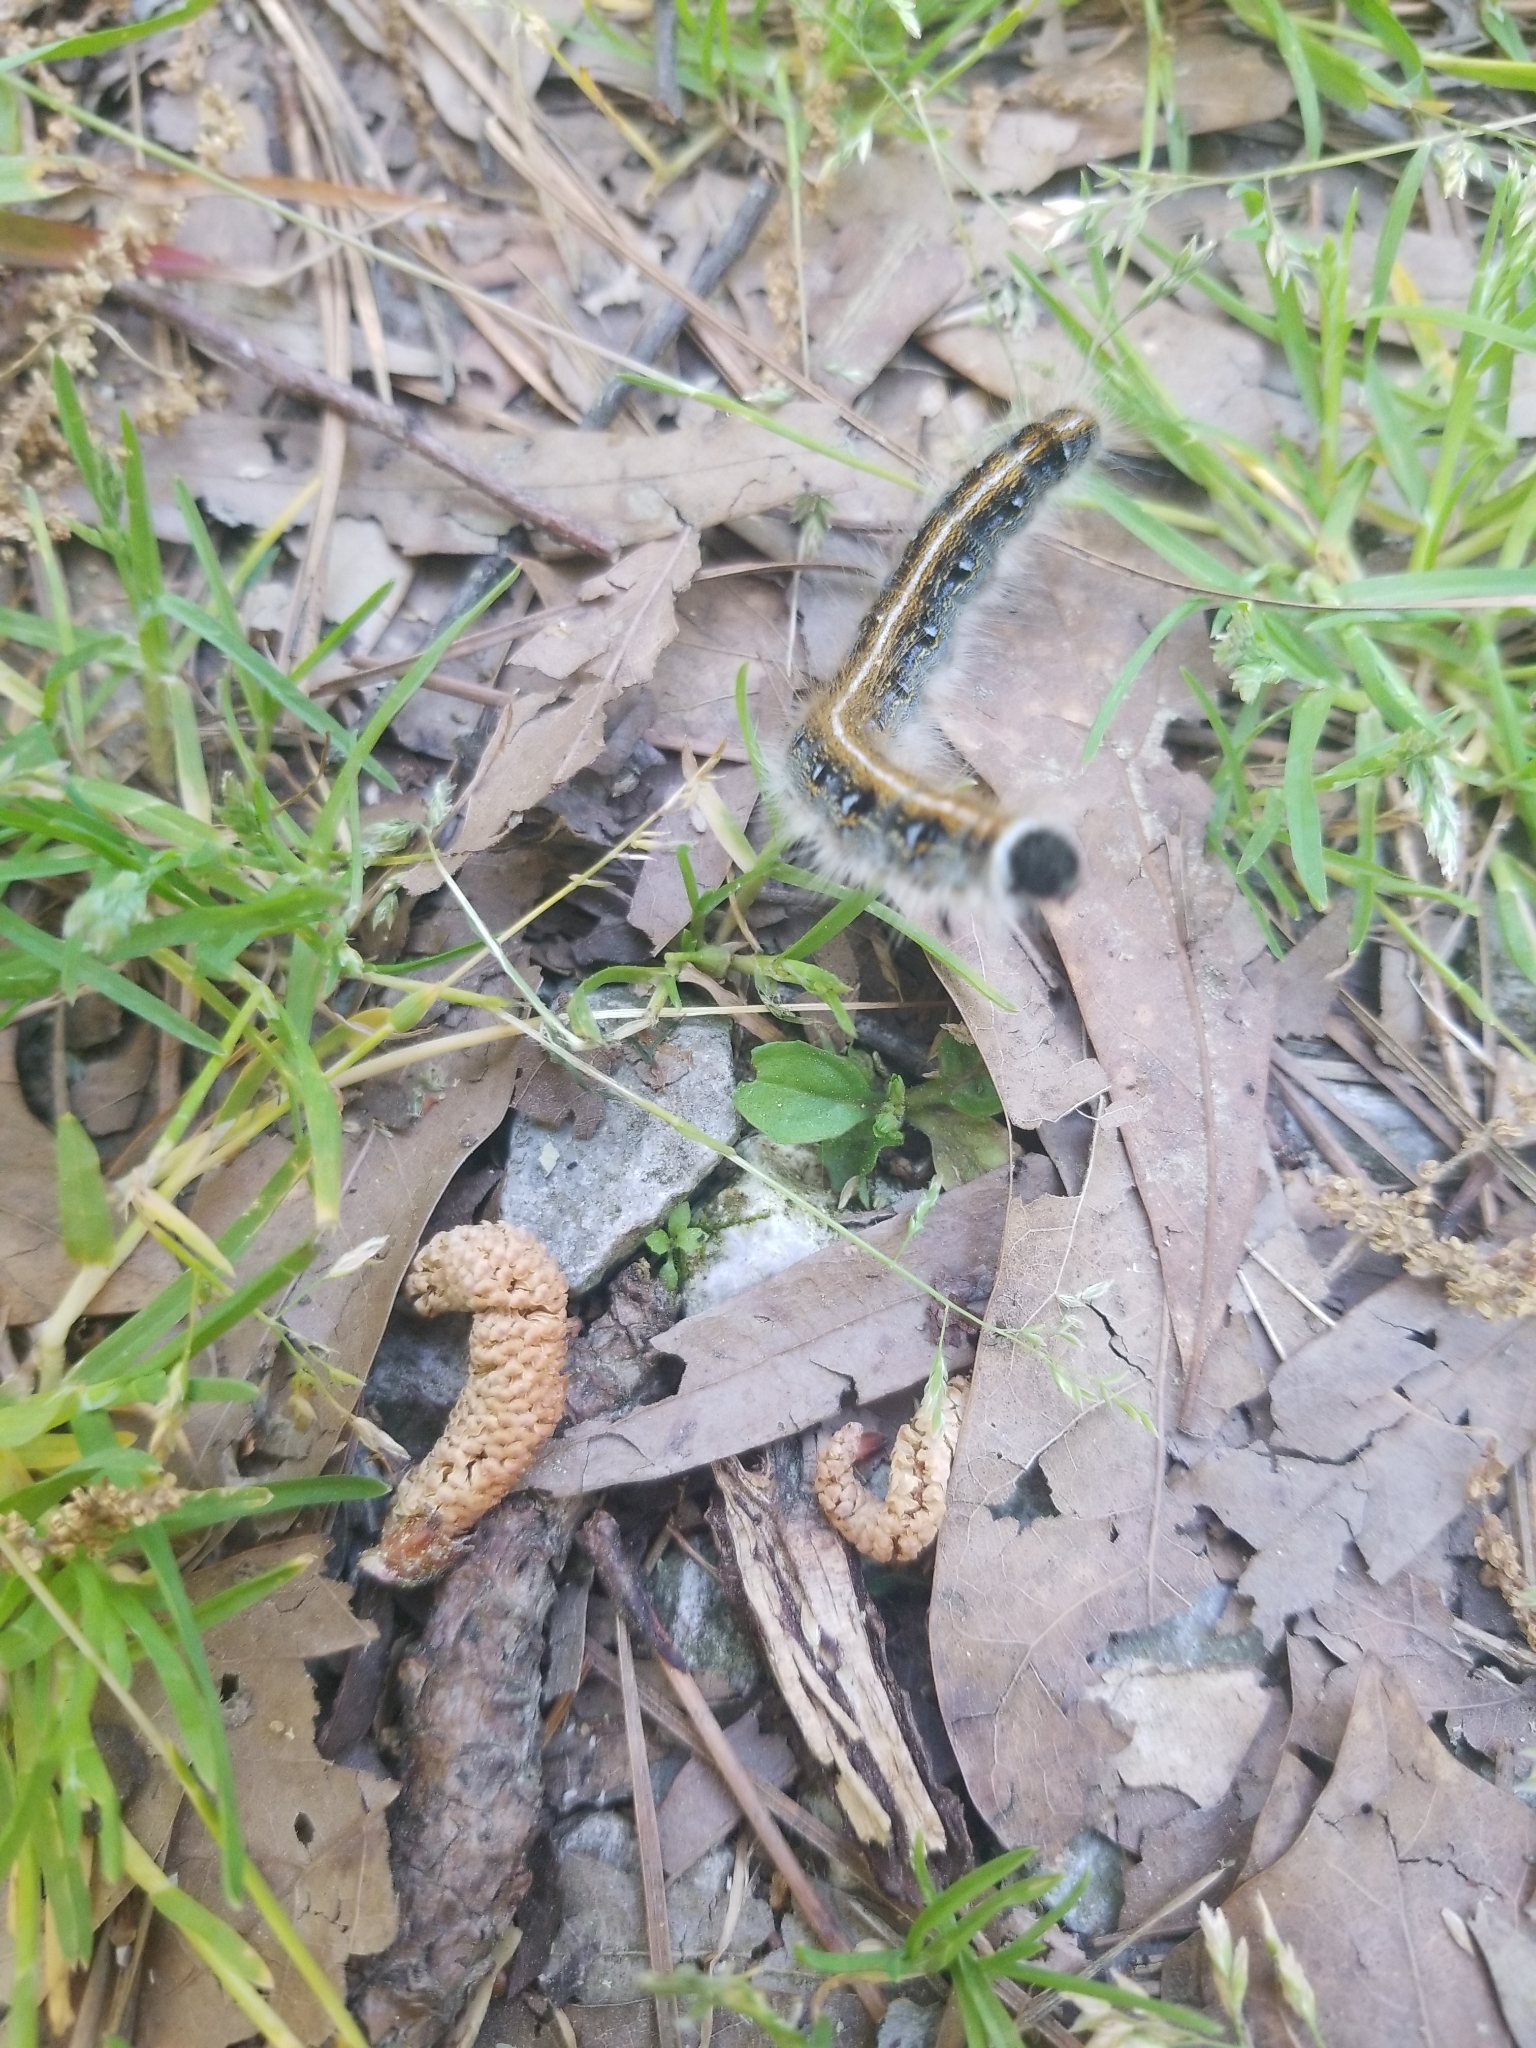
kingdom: Animalia
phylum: Arthropoda
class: Insecta
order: Lepidoptera
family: Lasiocampidae
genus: Malacosoma
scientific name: Malacosoma americana
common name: Eastern tent caterpillar moth
